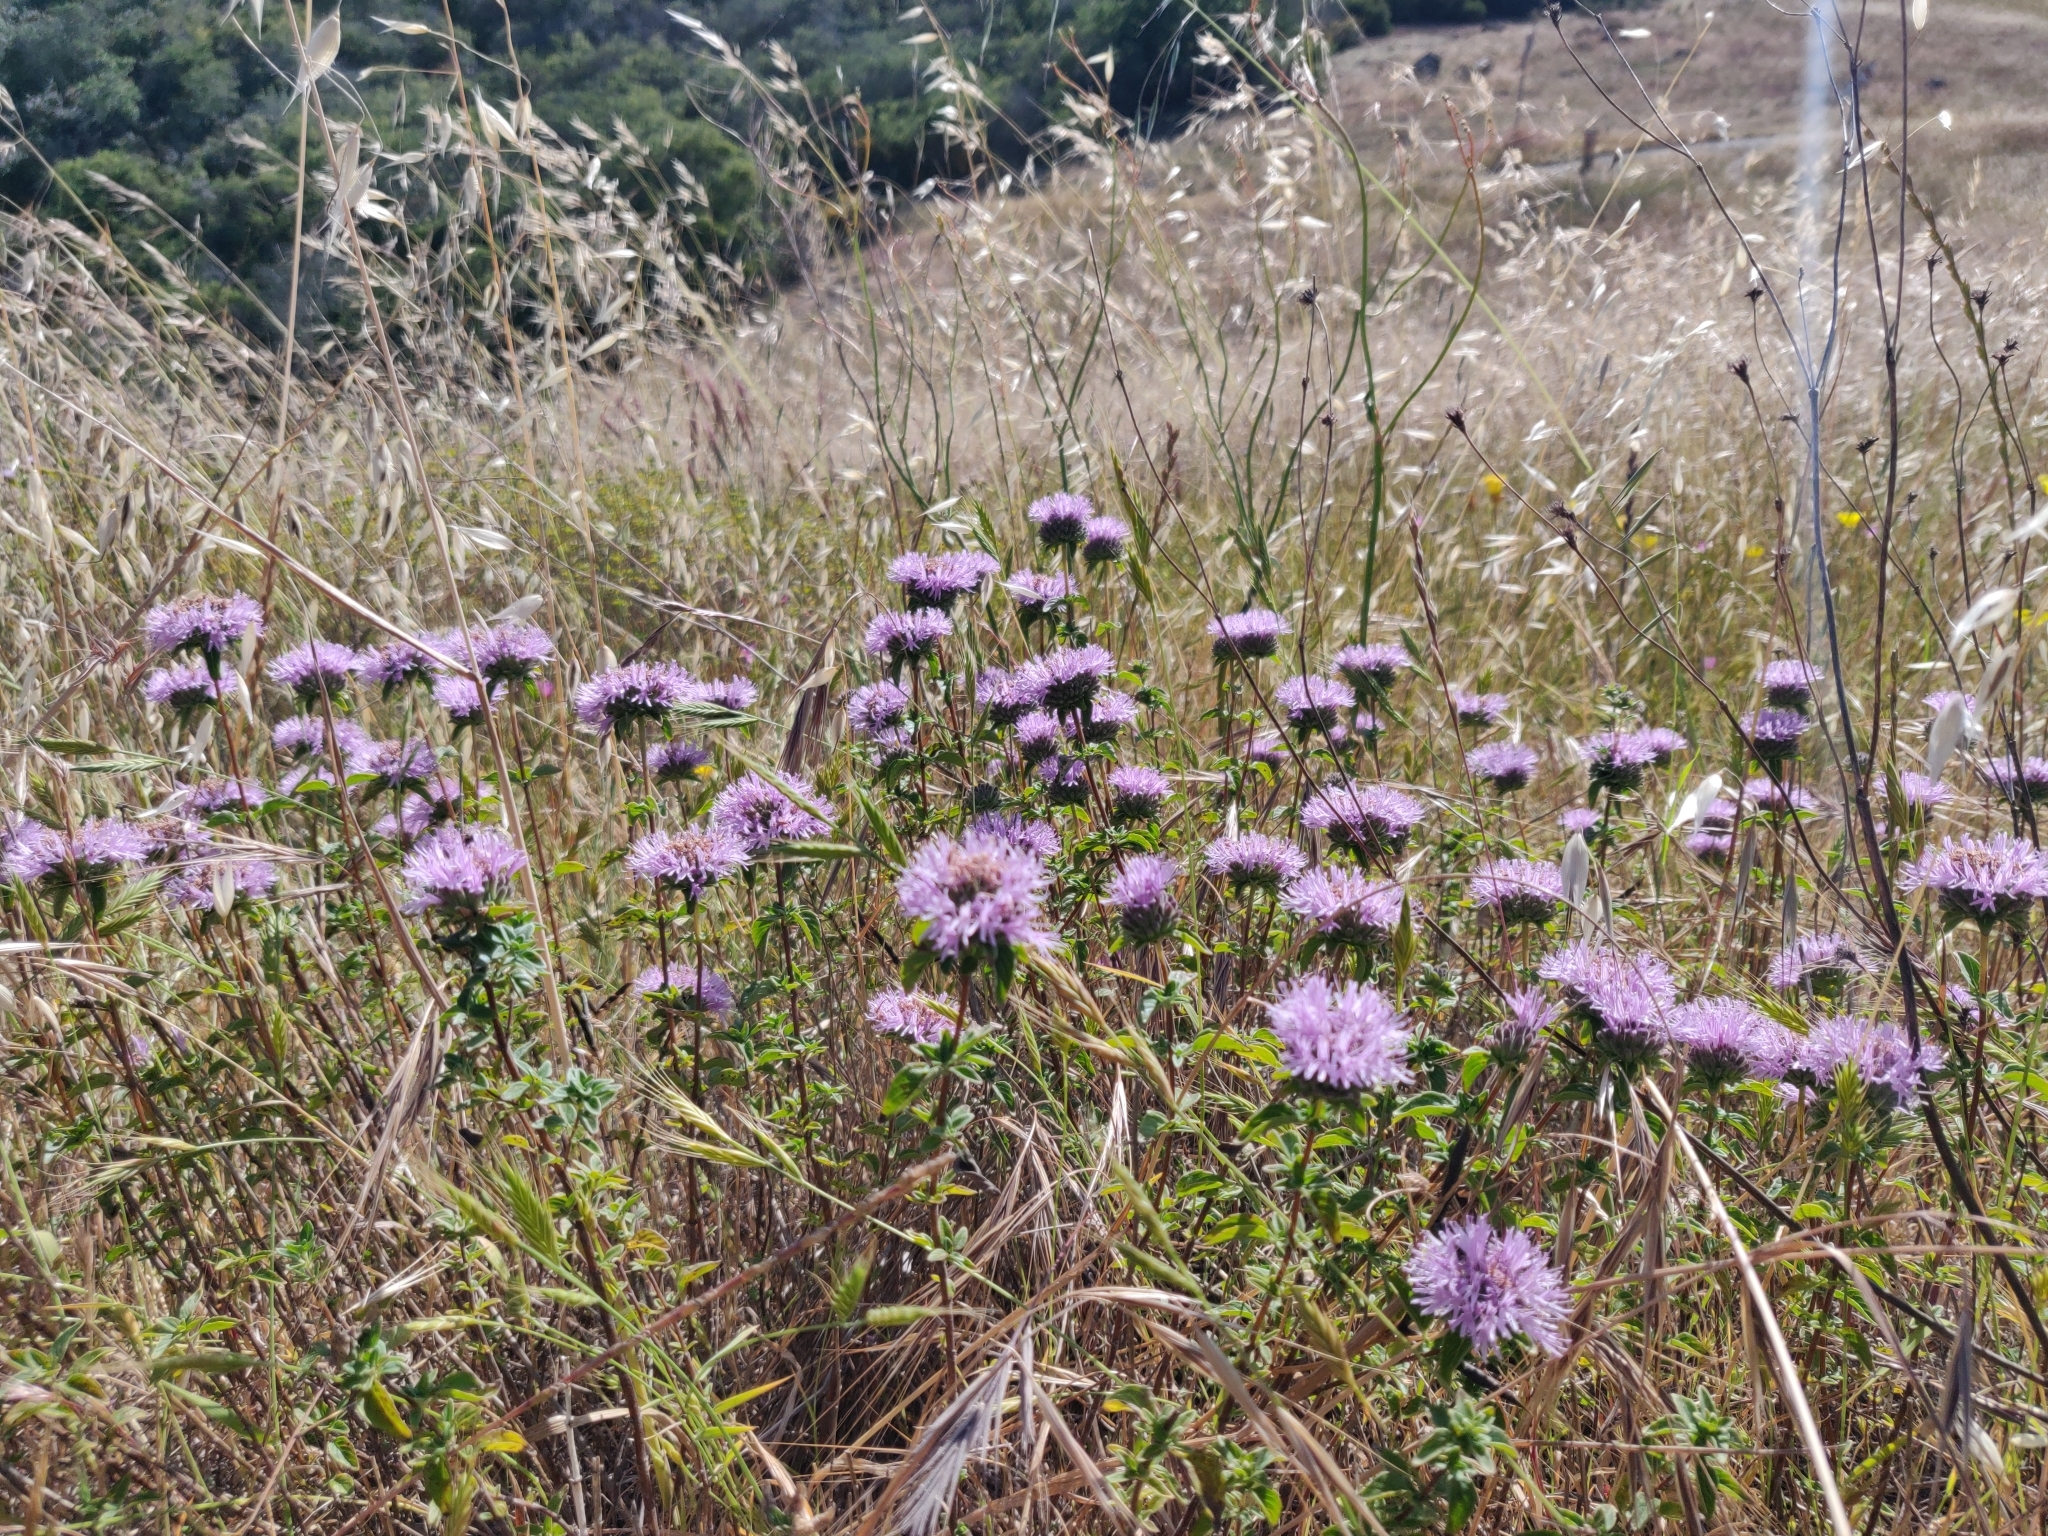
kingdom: Plantae
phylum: Tracheophyta
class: Magnoliopsida
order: Lamiales
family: Lamiaceae
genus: Monardella
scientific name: Monardella odoratissima
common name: Pacific monardella
